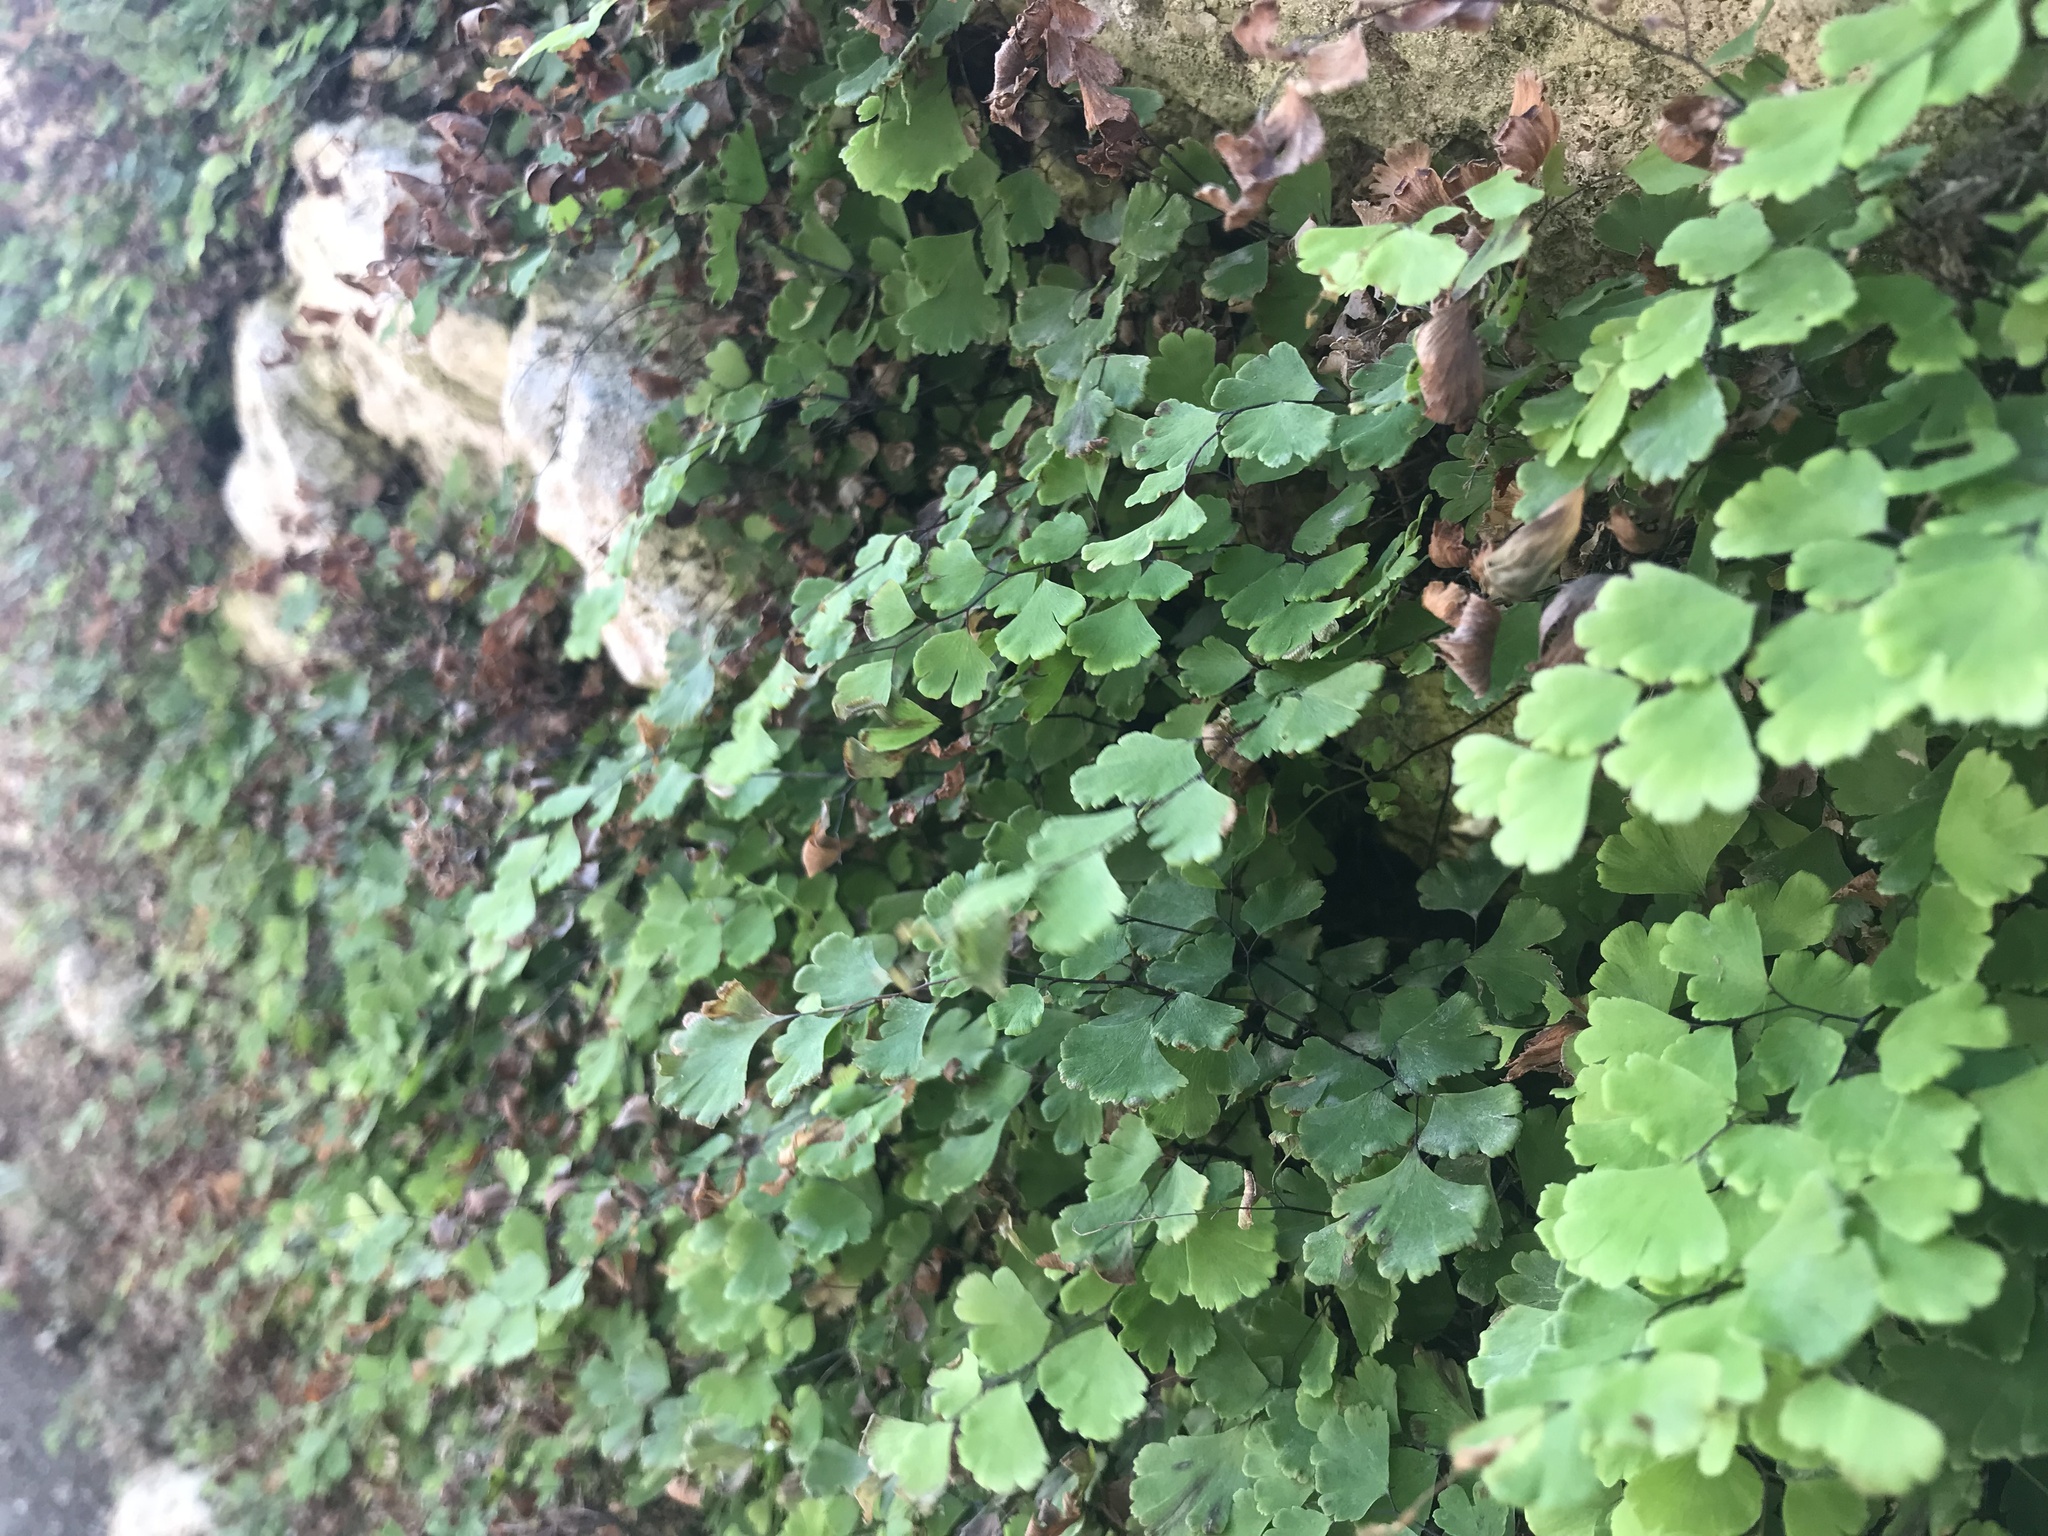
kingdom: Plantae
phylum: Tracheophyta
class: Polypodiopsida
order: Polypodiales
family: Pteridaceae
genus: Adiantum
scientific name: Adiantum capillus-veneris
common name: Maidenhair fern
